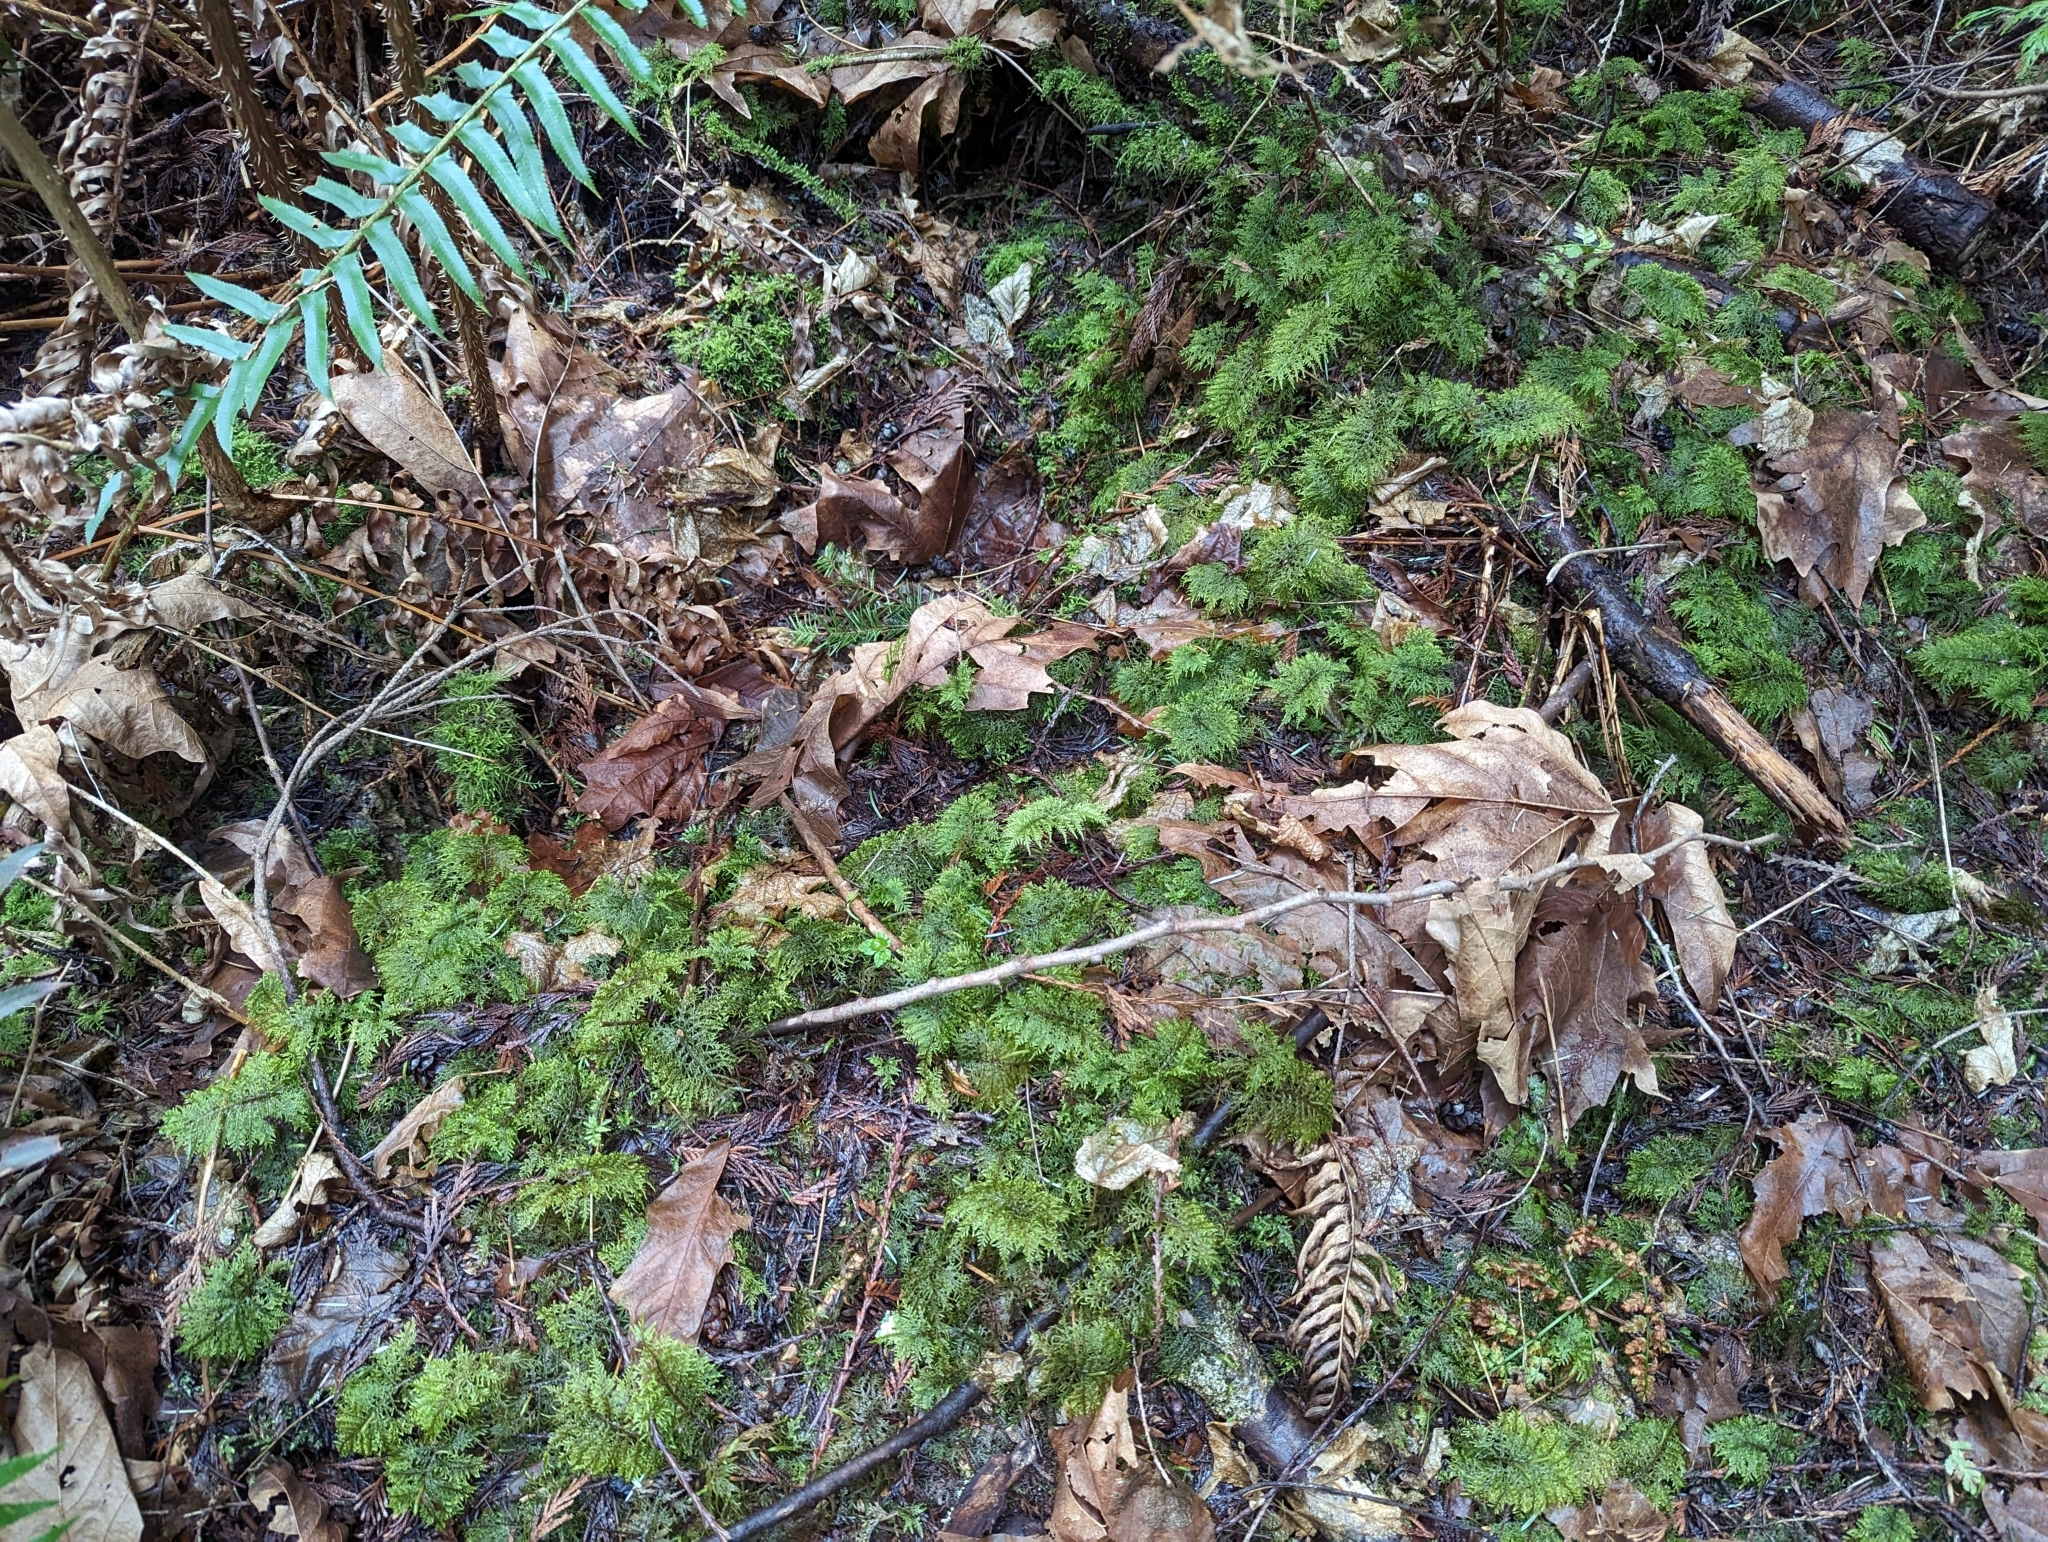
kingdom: Plantae
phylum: Bryophyta
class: Bryopsida
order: Hypnales
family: Hylocomiaceae
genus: Hylocomium
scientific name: Hylocomium splendens
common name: Stairstep moss
